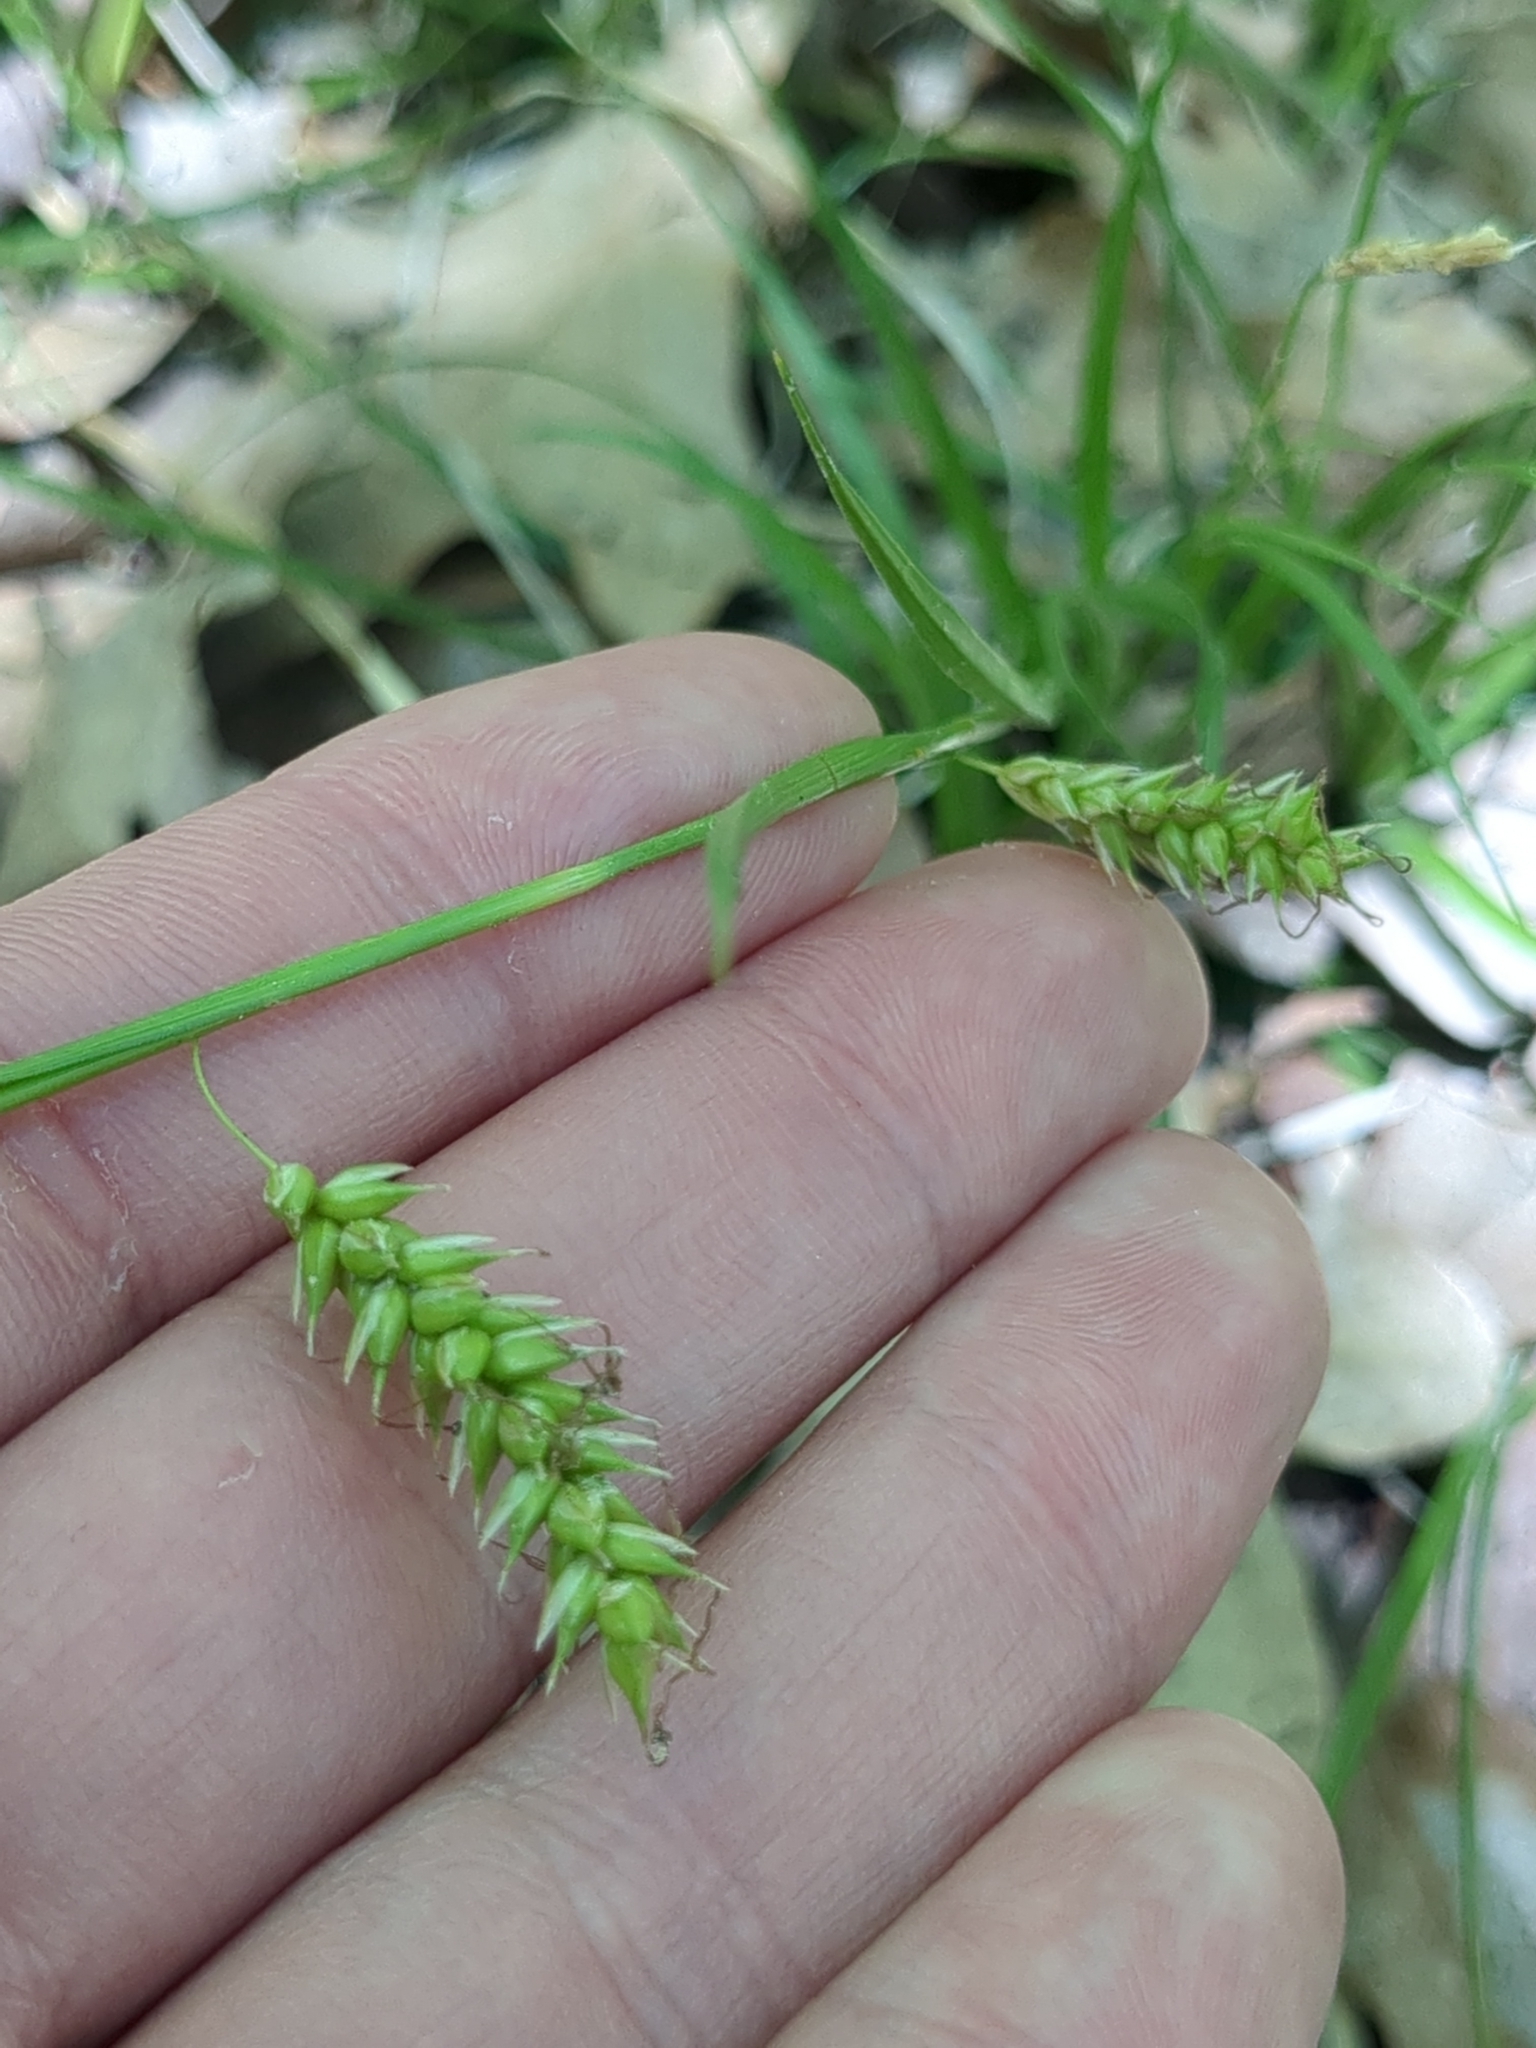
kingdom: Plantae
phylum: Tracheophyta
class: Liliopsida
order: Poales
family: Cyperaceae
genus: Carex
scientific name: Carex cherokeensis
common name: Cherokee sedge
